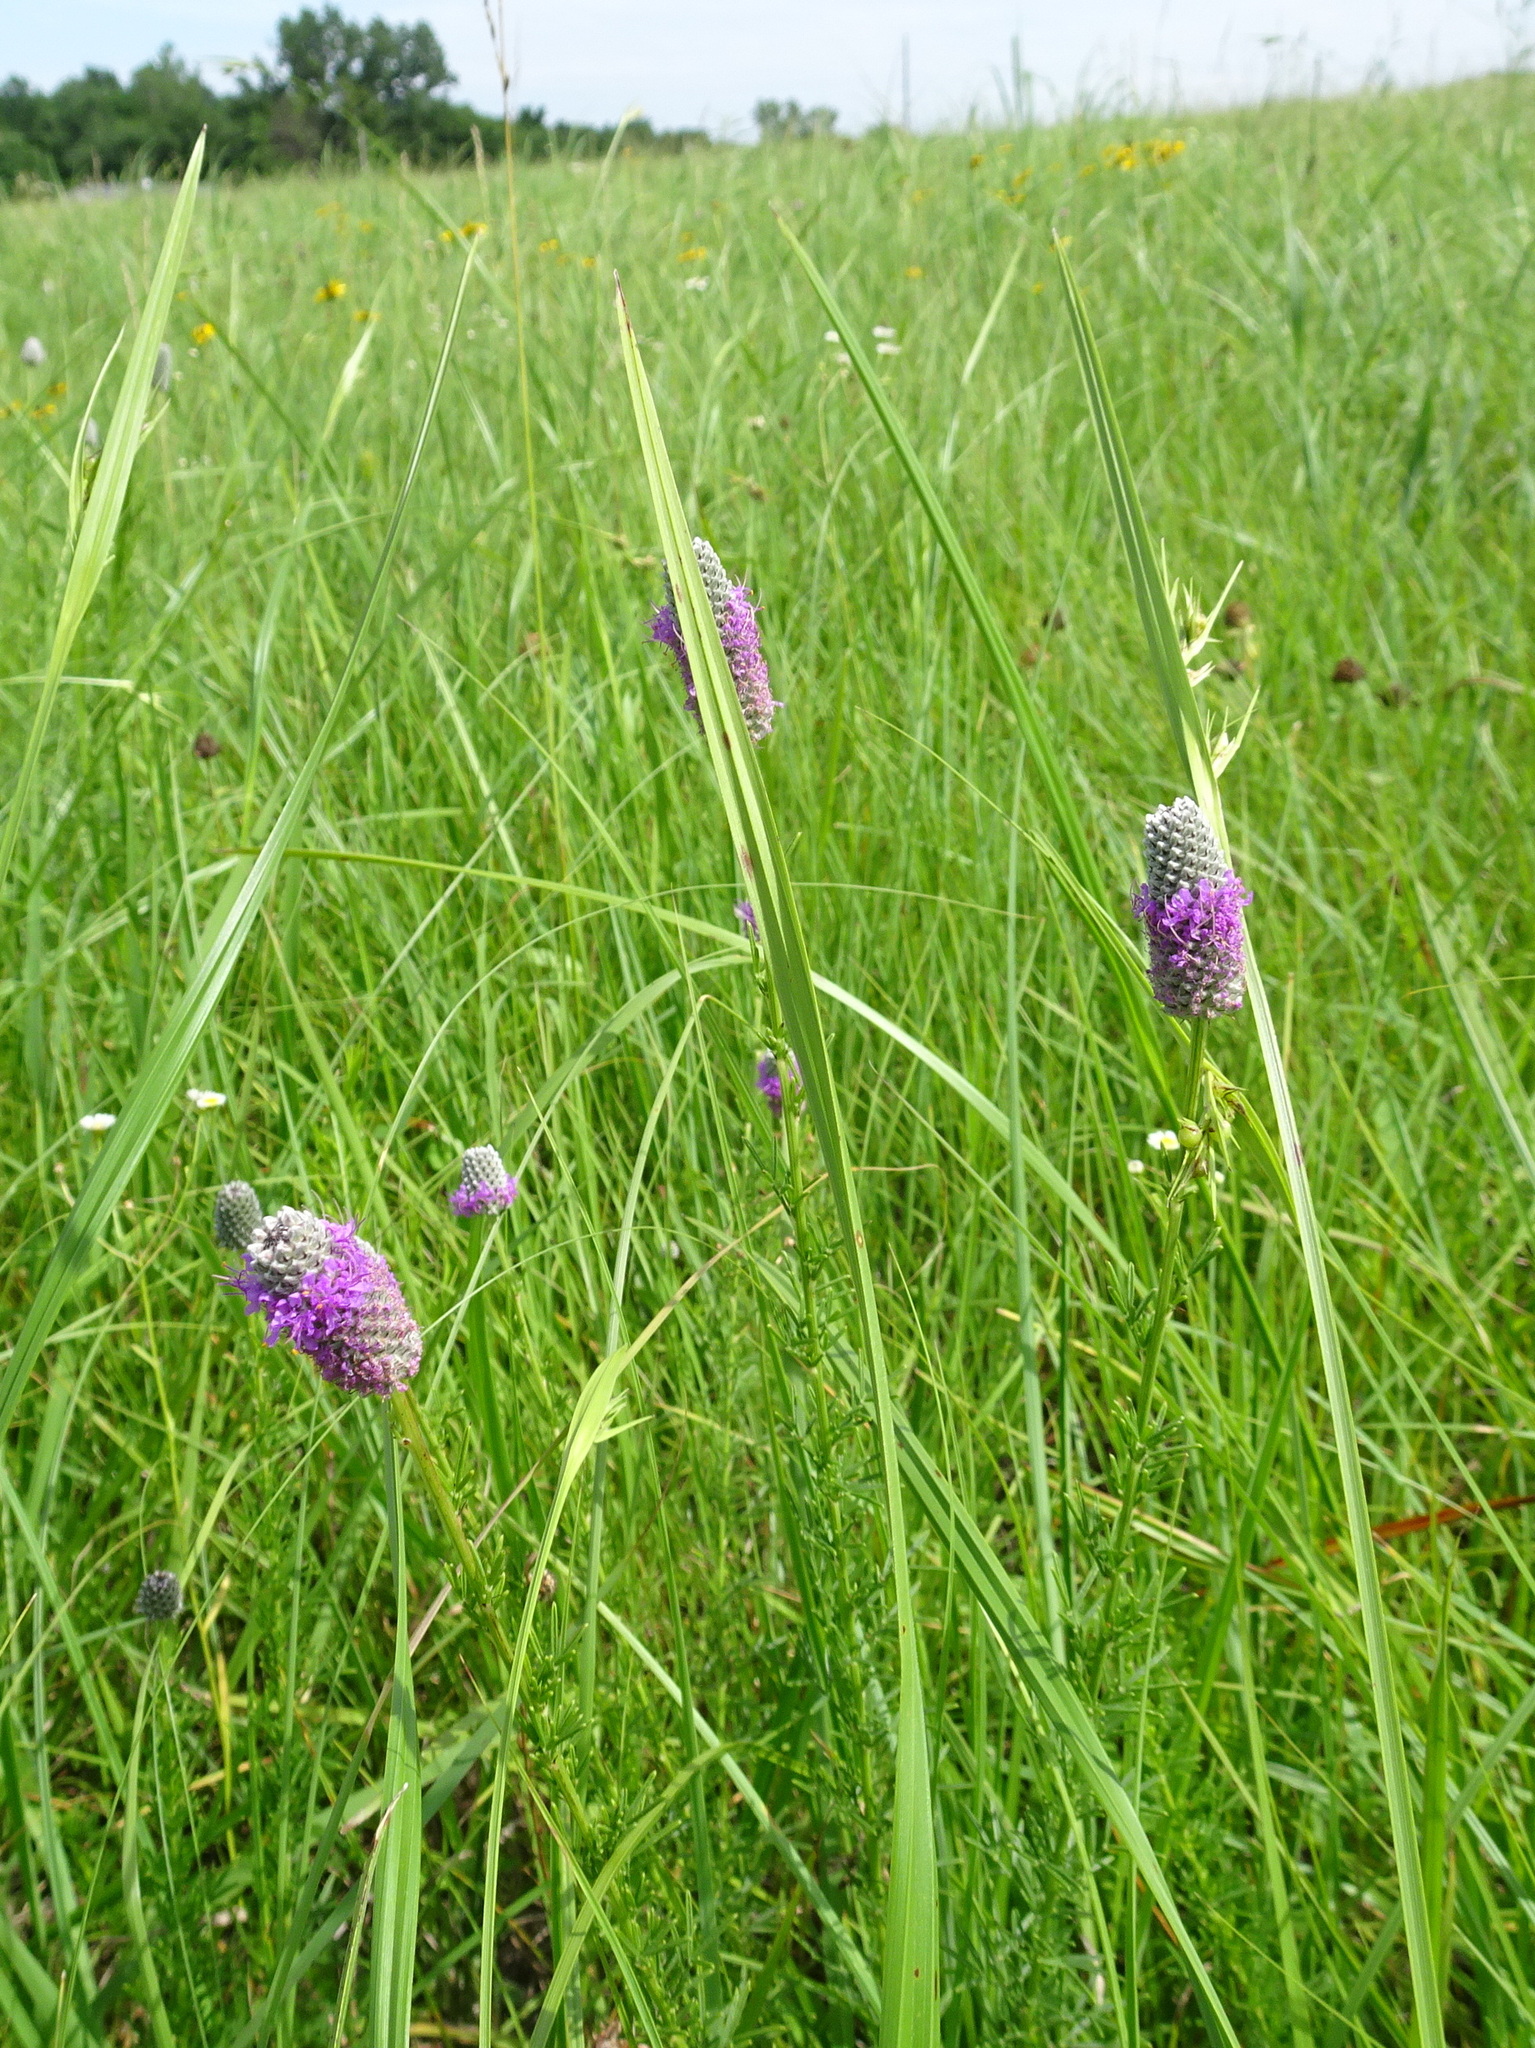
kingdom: Plantae
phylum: Tracheophyta
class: Magnoliopsida
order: Fabales
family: Fabaceae
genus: Dalea
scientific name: Dalea purpurea
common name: Purple prairie-clover
